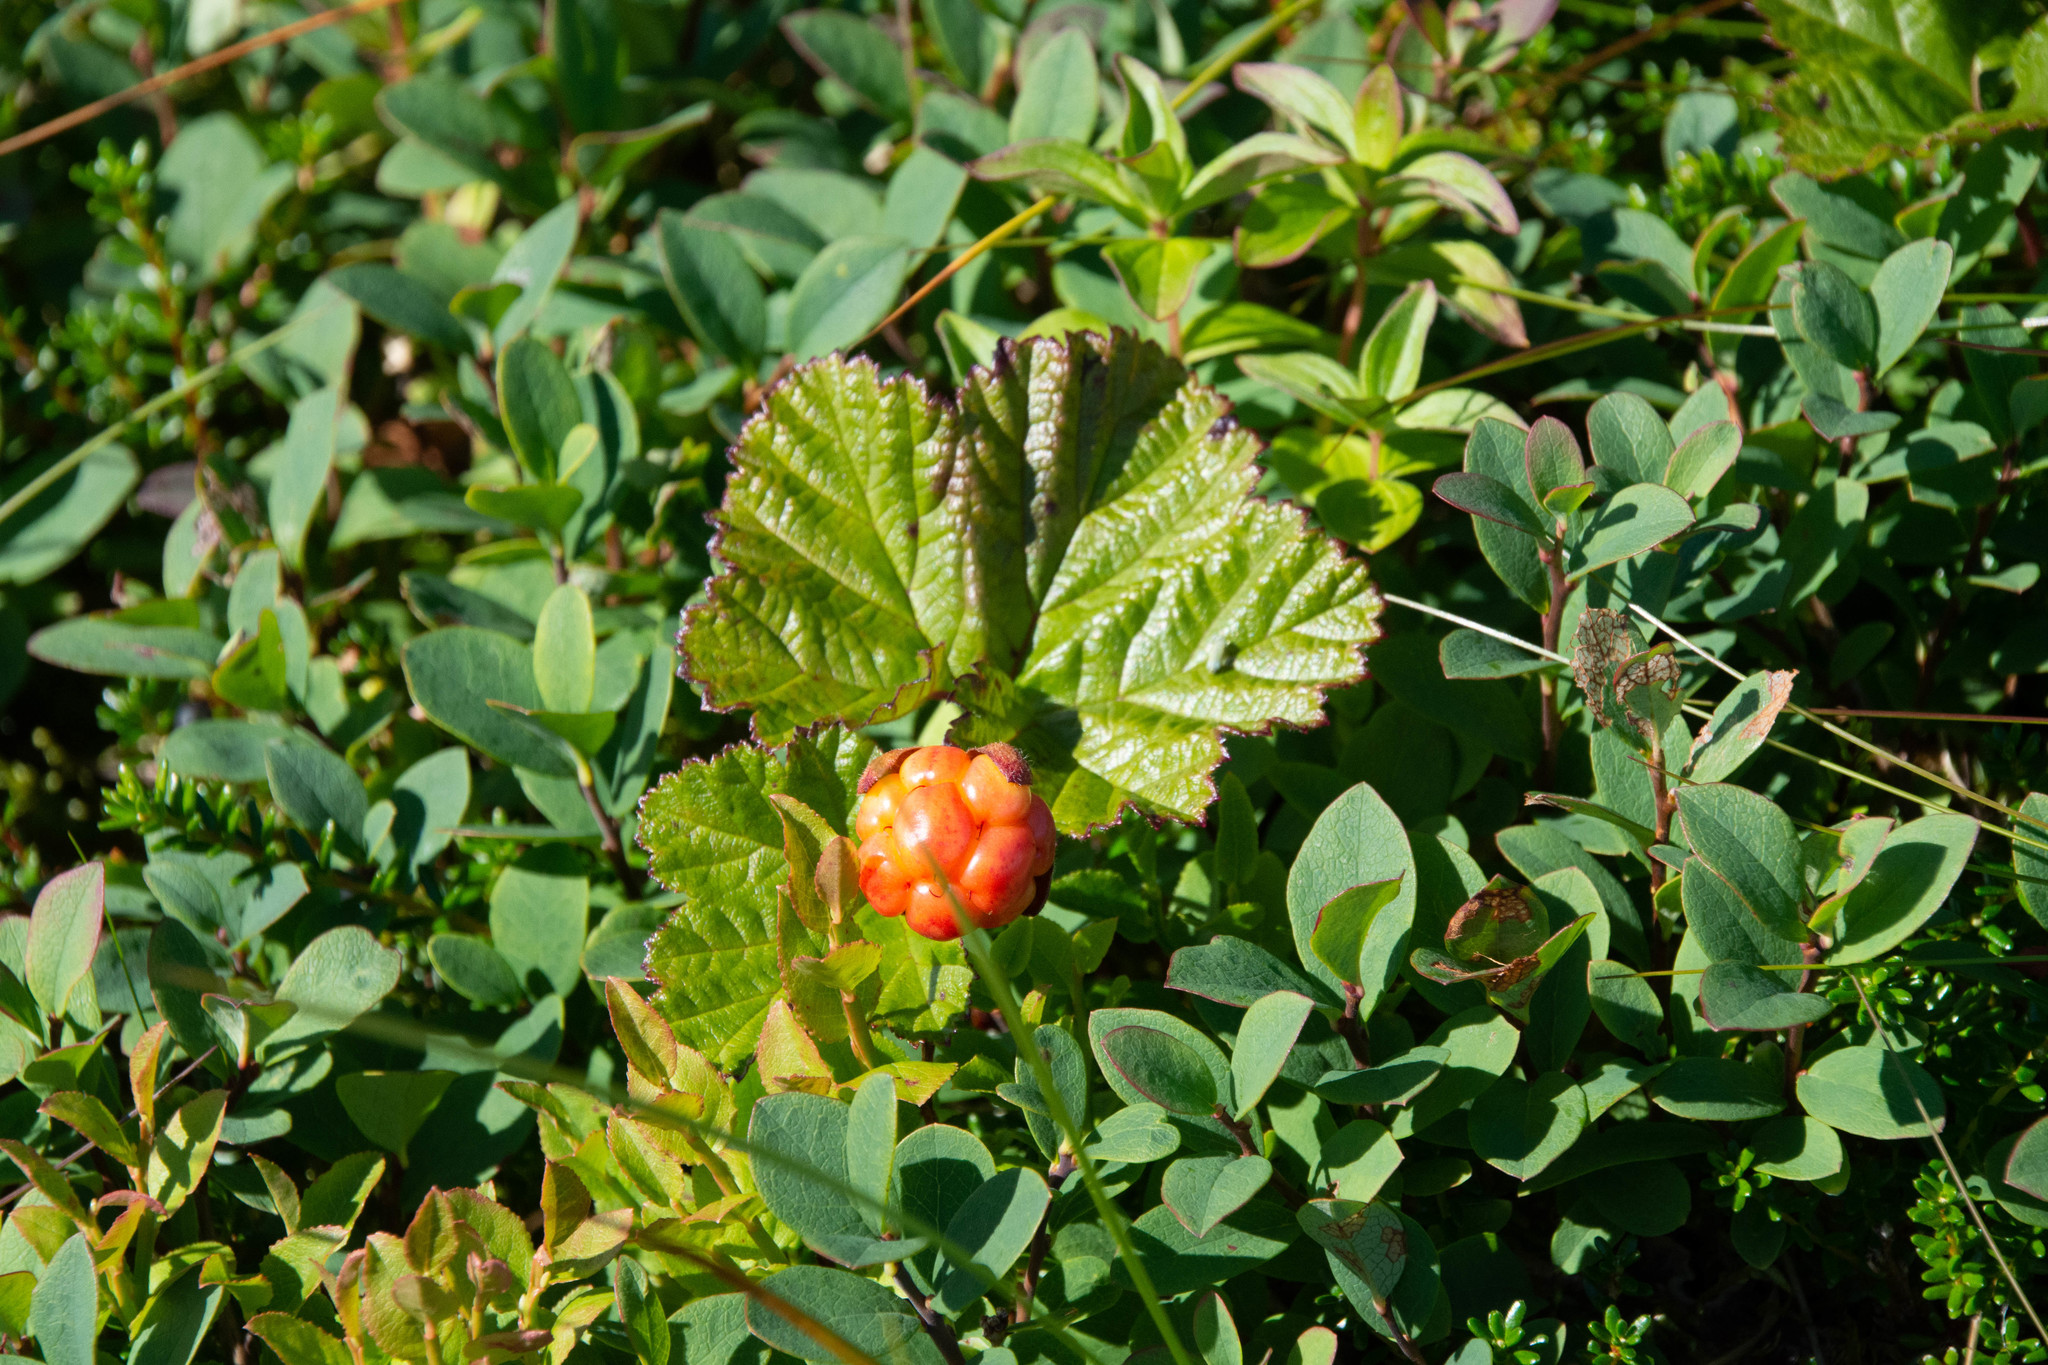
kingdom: Plantae
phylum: Tracheophyta
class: Magnoliopsida
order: Rosales
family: Rosaceae
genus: Rubus
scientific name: Rubus chamaemorus
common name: Cloudberry
